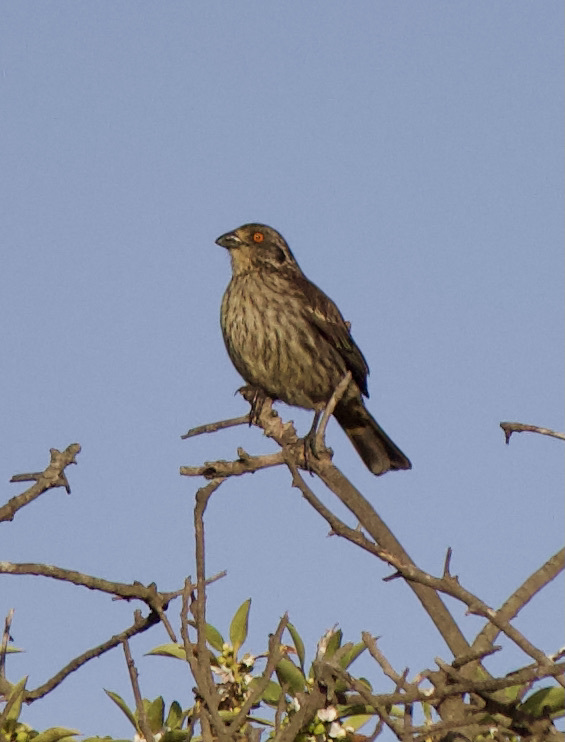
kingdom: Animalia
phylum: Chordata
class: Aves
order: Passeriformes
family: Cotingidae
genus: Phytotoma
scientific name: Phytotoma rara
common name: Rufous-tailed plantcutter
